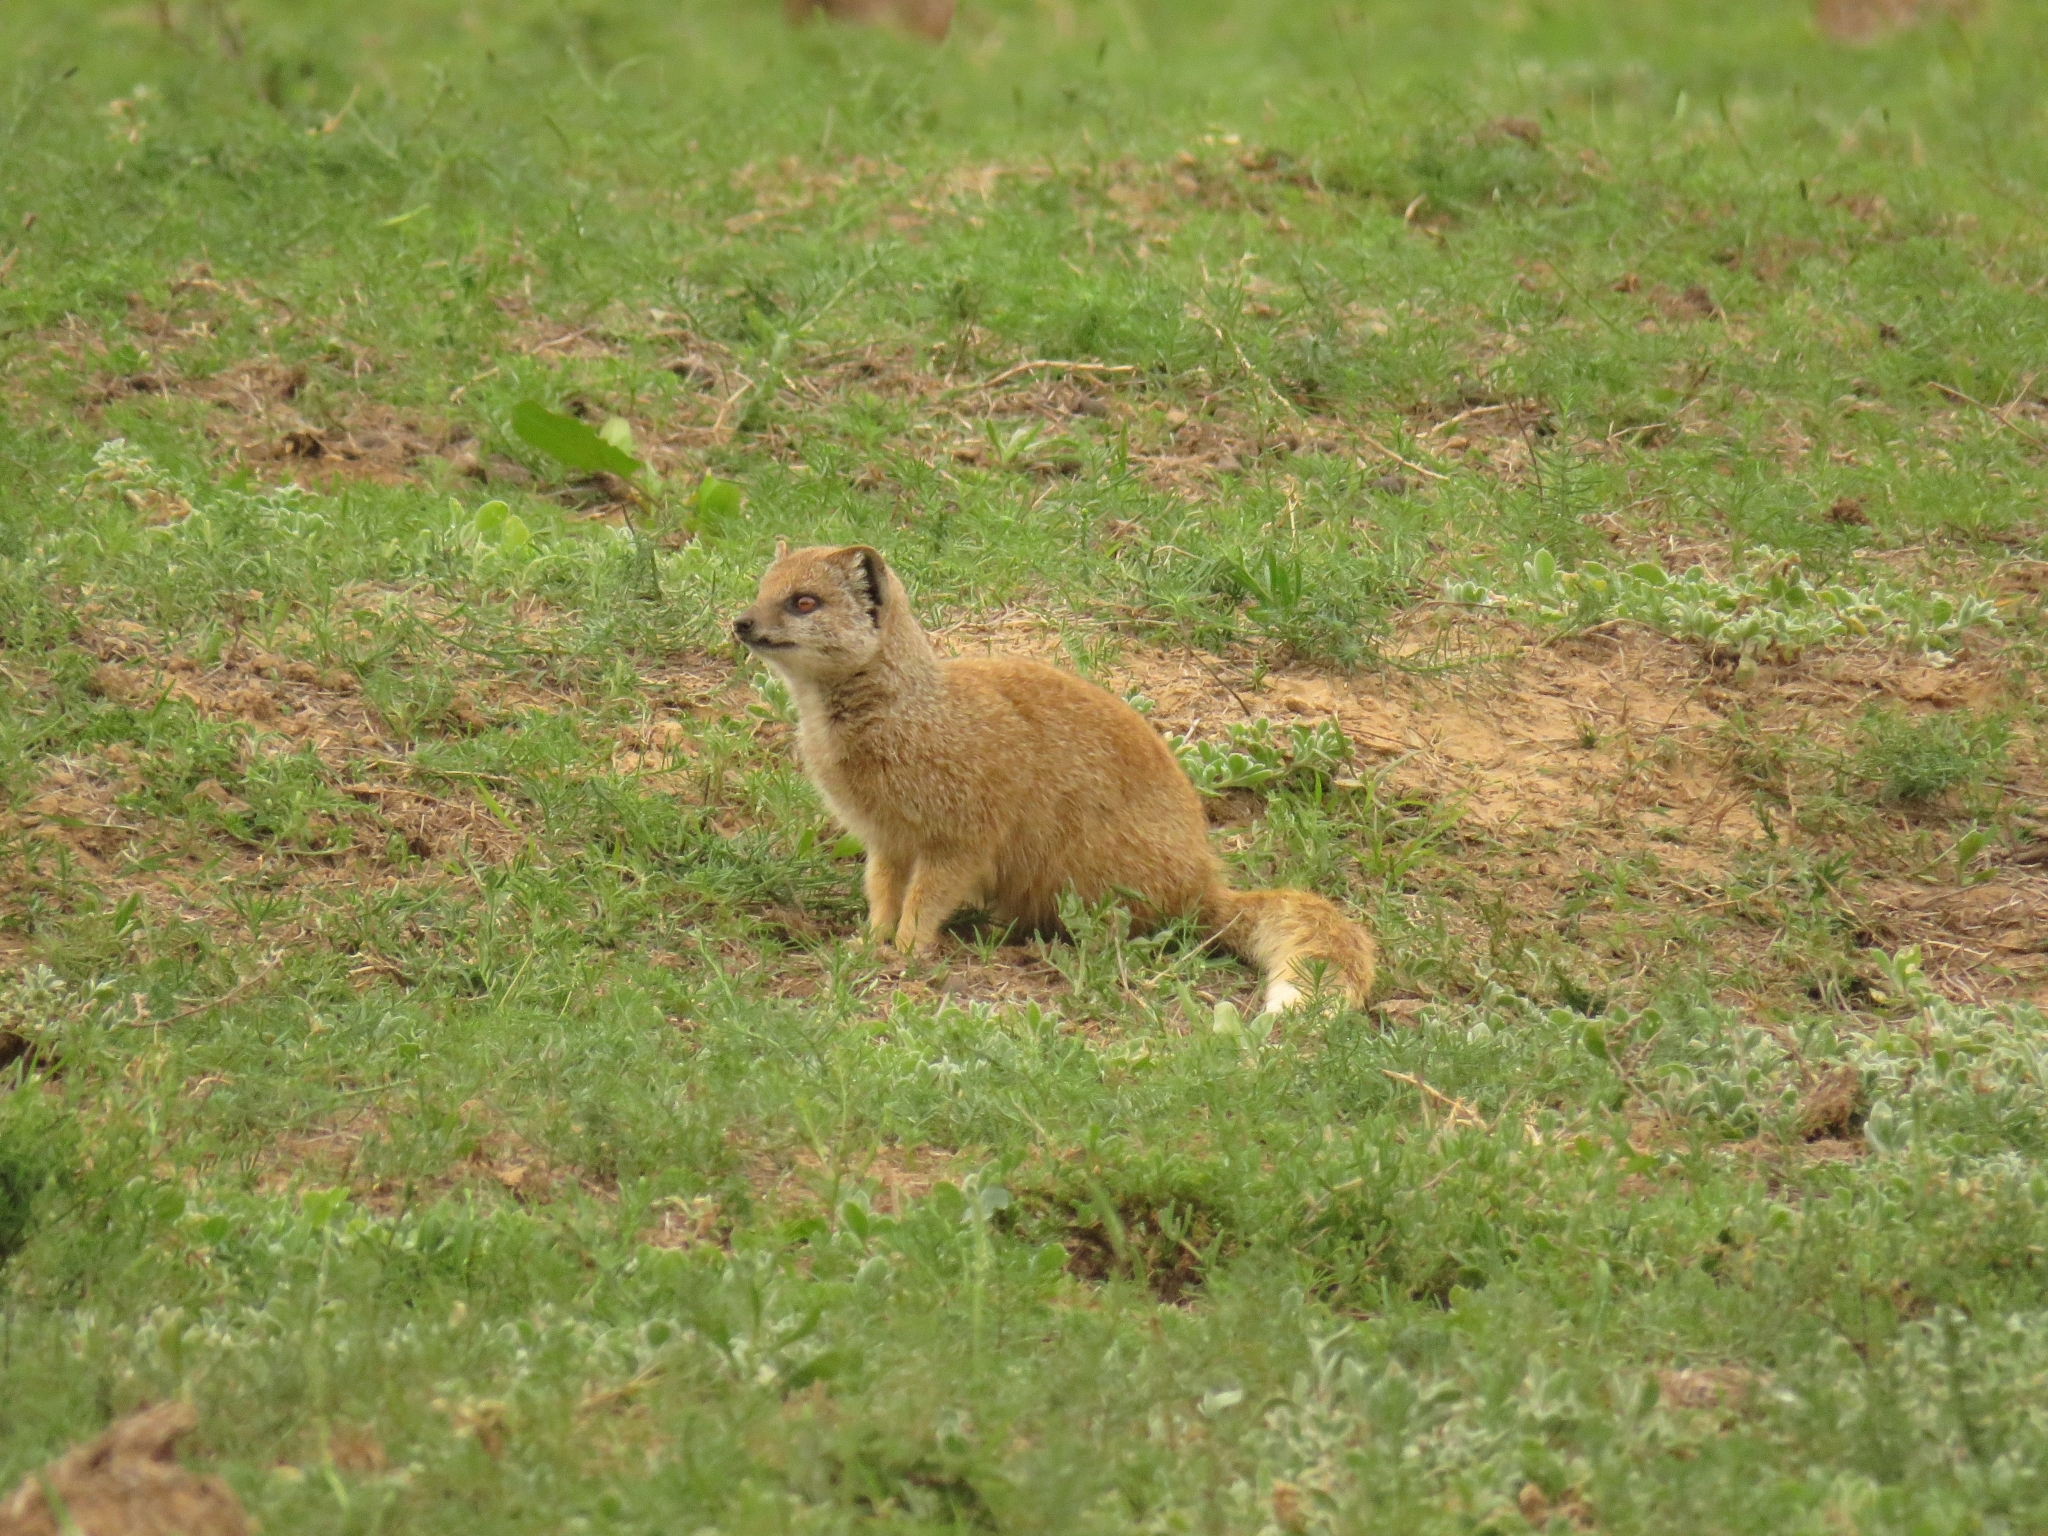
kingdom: Animalia
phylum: Chordata
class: Mammalia
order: Carnivora
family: Herpestidae
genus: Cynictis
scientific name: Cynictis penicillata
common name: Yellow mongoose
